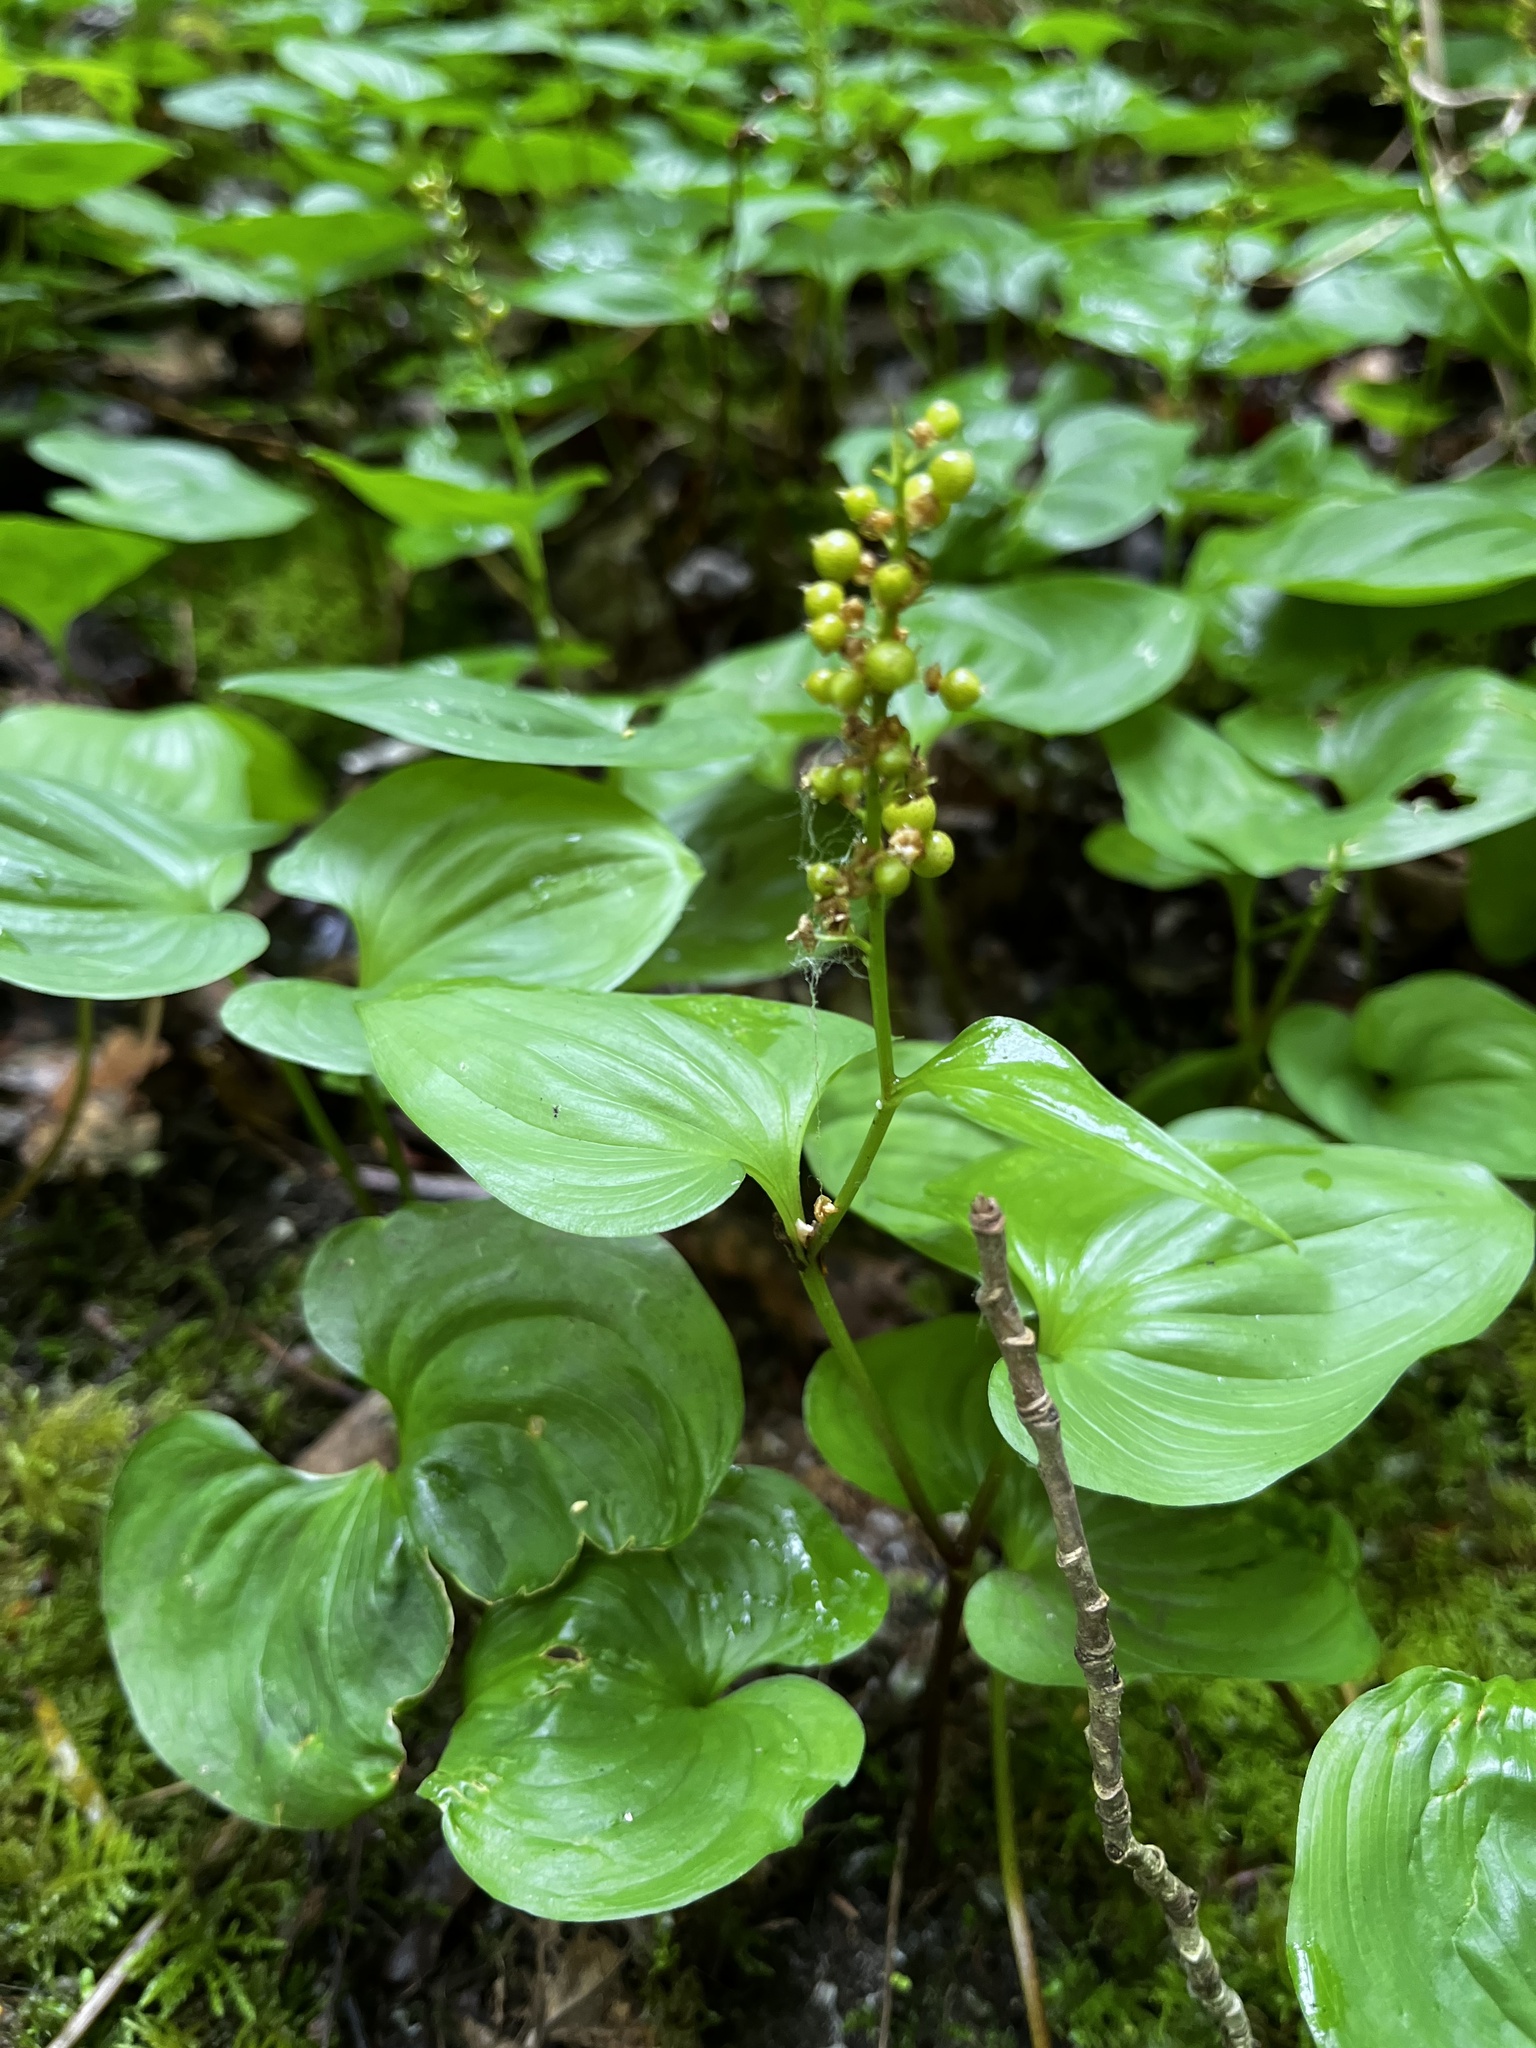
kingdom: Plantae
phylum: Tracheophyta
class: Liliopsida
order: Asparagales
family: Asparagaceae
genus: Maianthemum
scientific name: Maianthemum dilatatum
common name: False lily-of-the-valley
